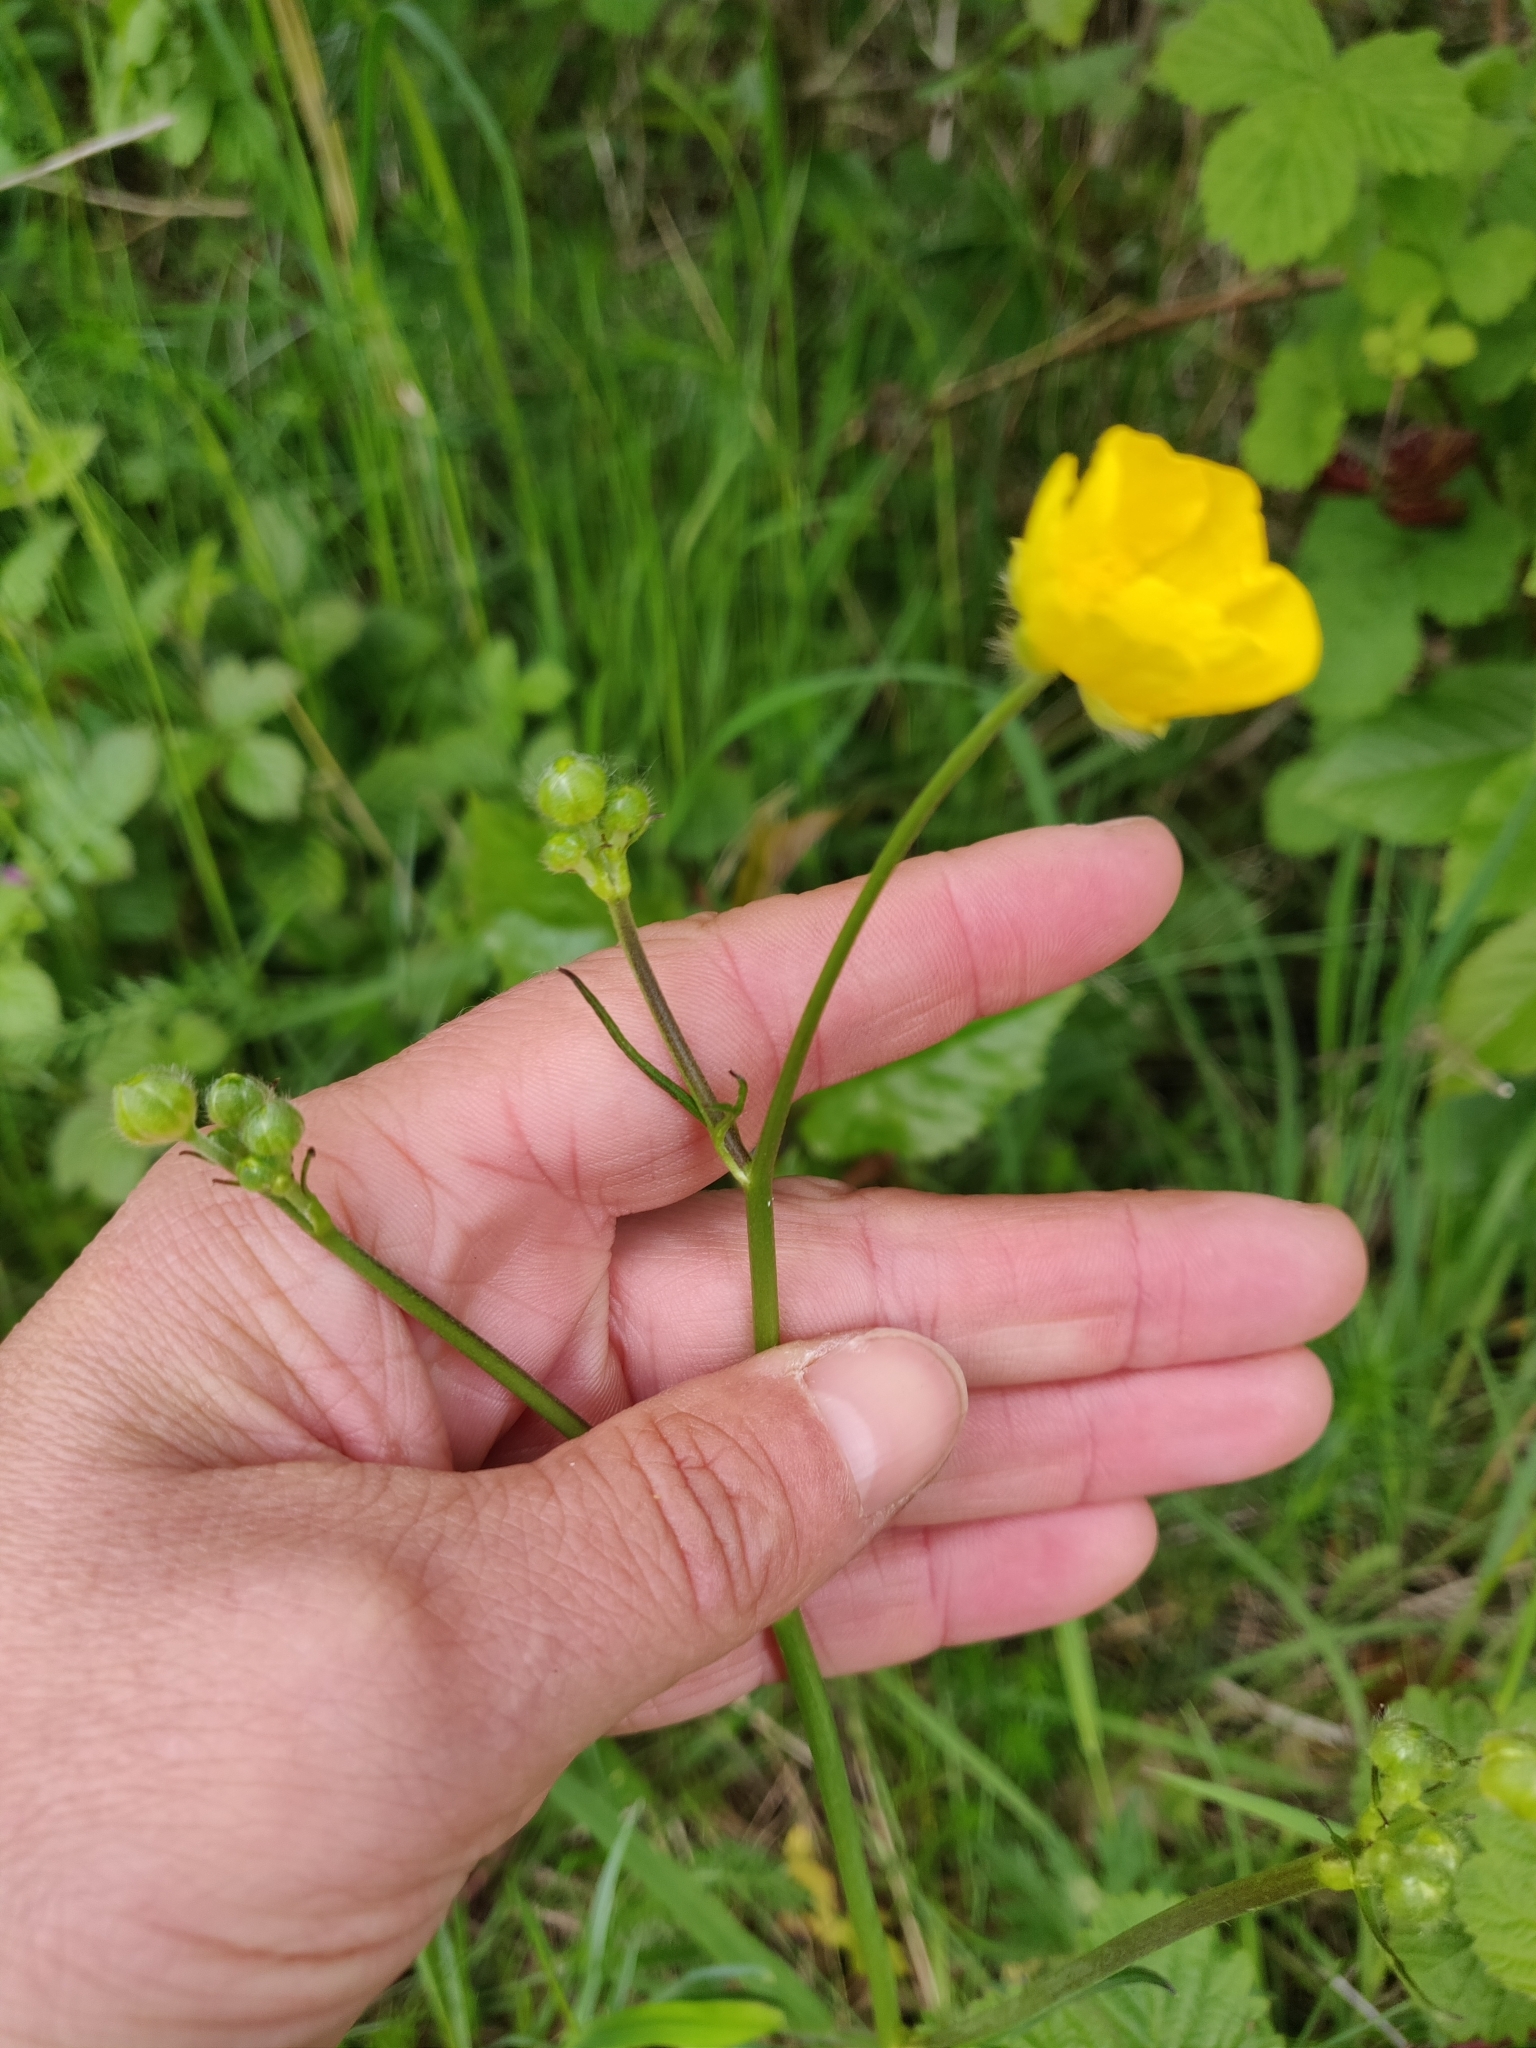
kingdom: Plantae
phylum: Tracheophyta
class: Magnoliopsida
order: Ranunculales
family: Ranunculaceae
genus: Ranunculus
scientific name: Ranunculus acris
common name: Meadow buttercup
